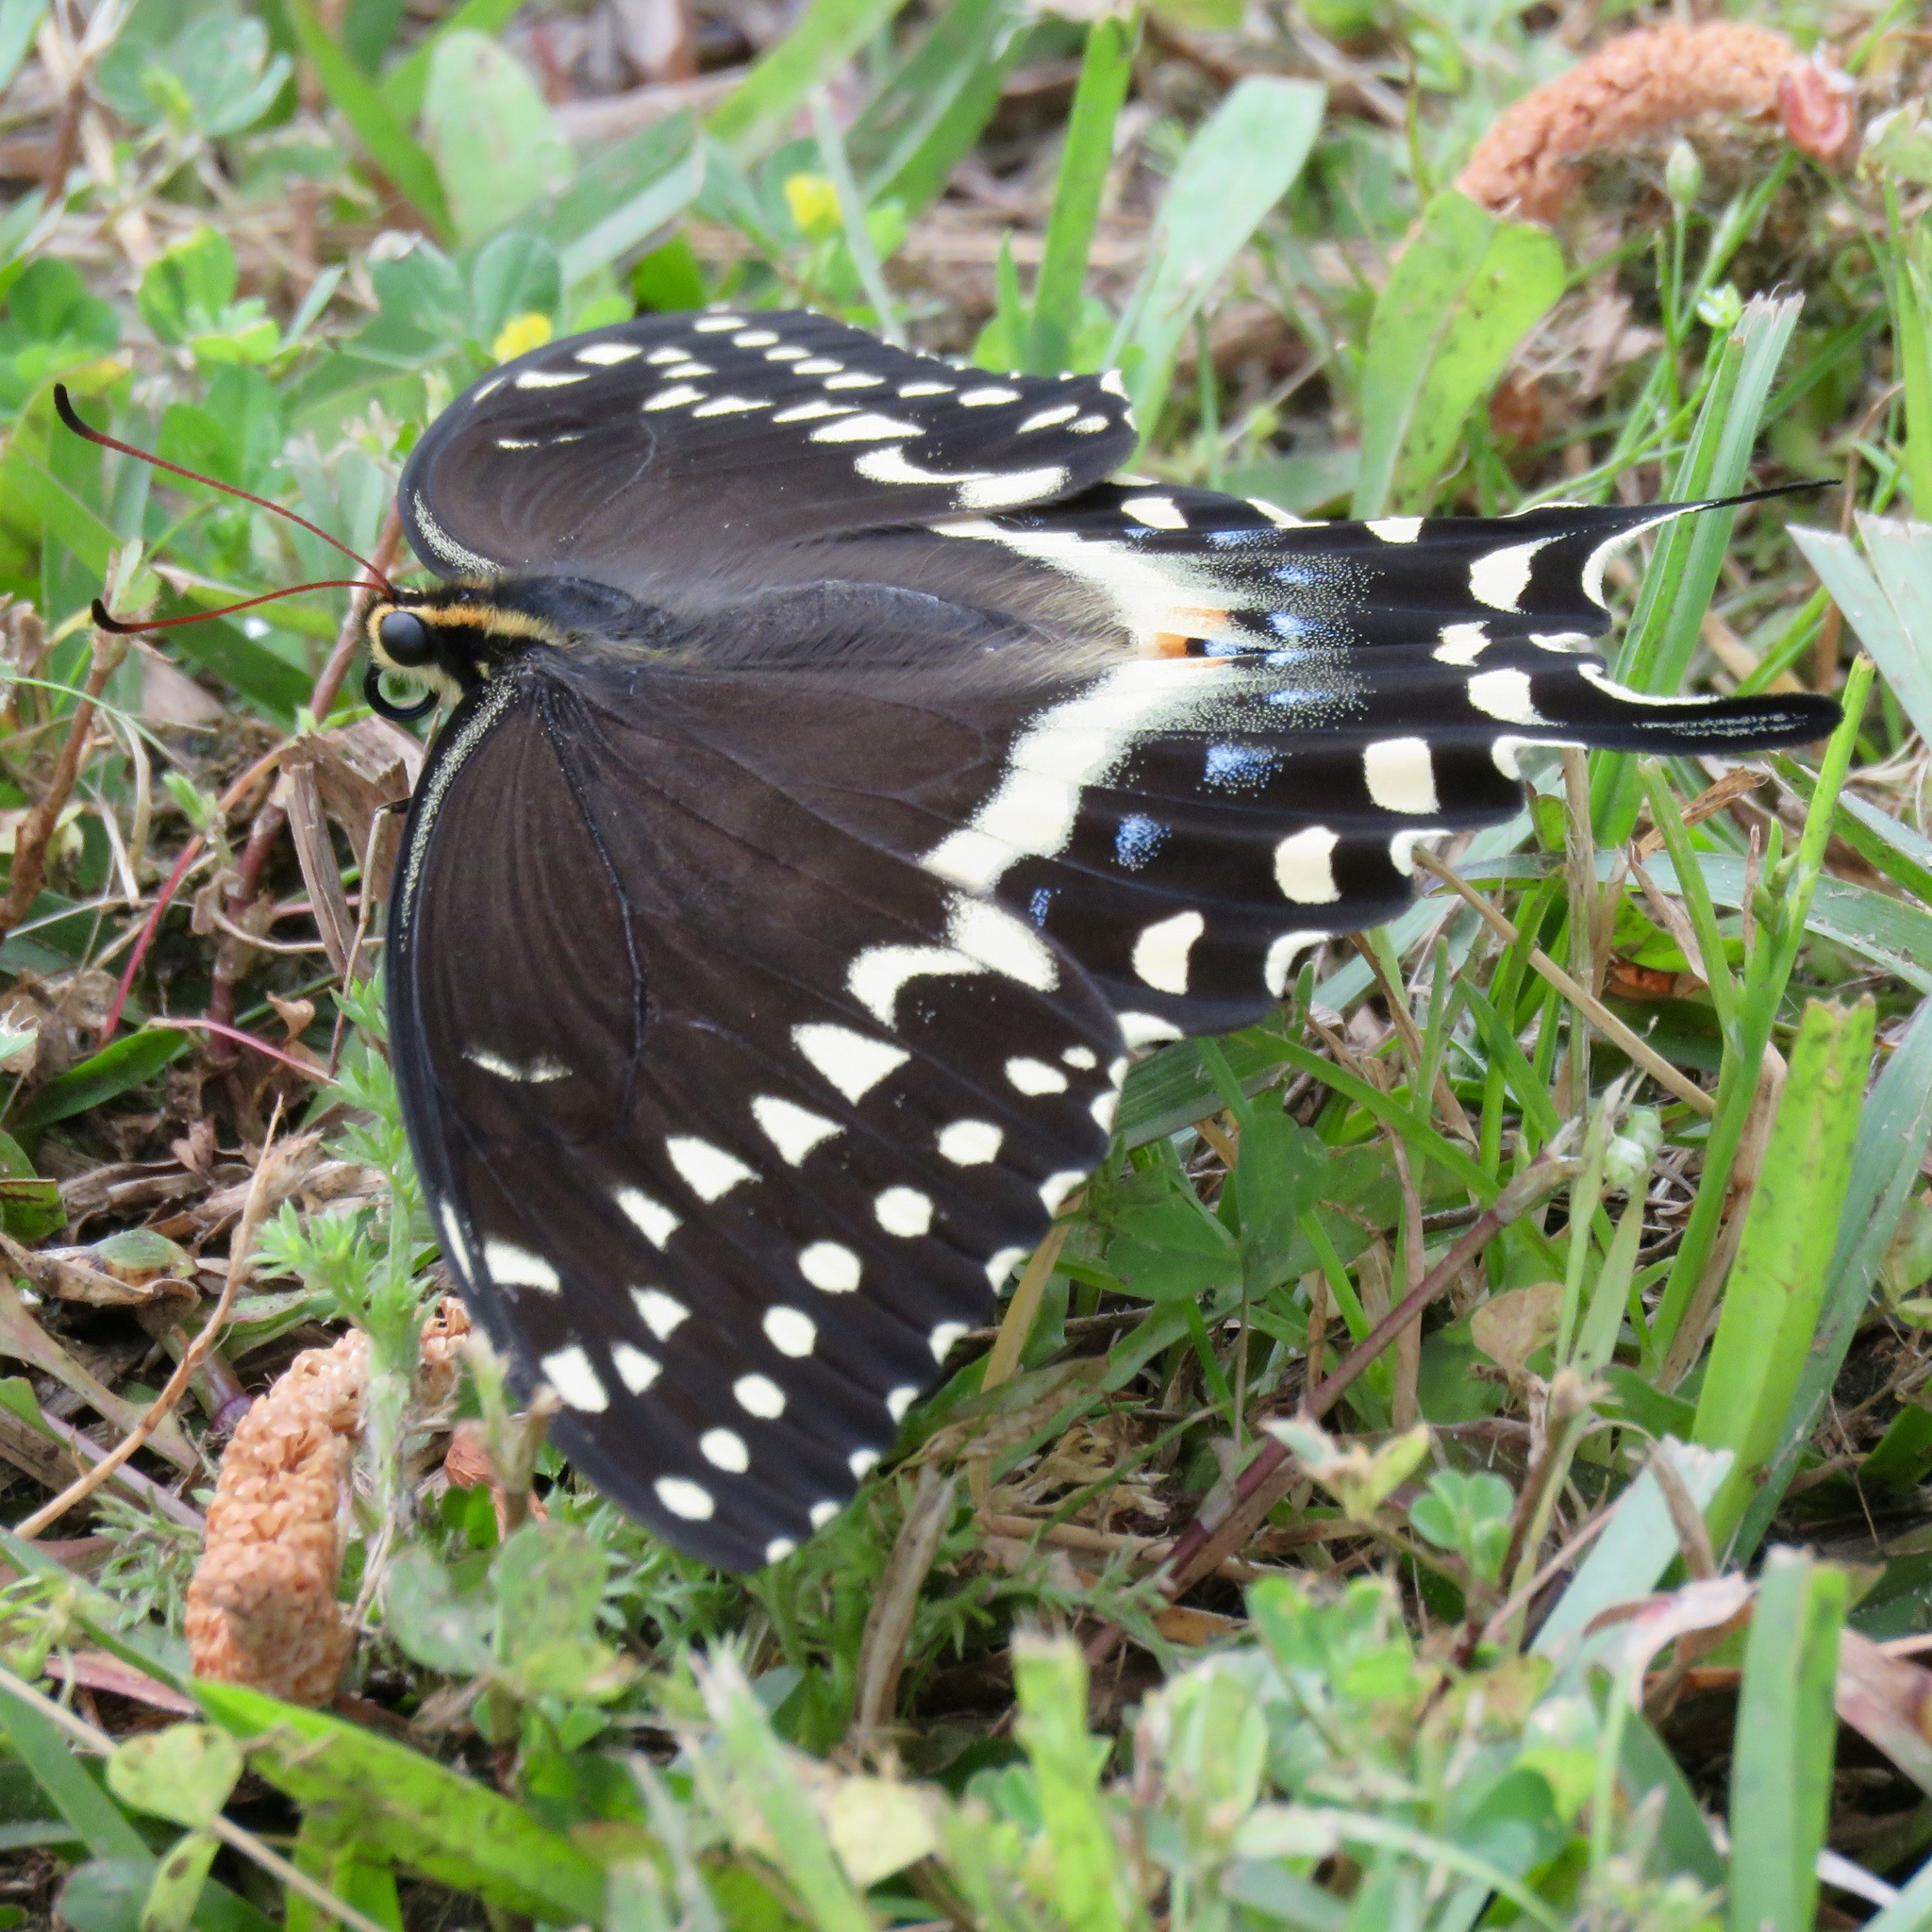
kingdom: Animalia
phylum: Arthropoda
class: Insecta
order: Lepidoptera
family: Papilionidae
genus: Papilio
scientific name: Papilio palamedes
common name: Palamedes swallowtail
